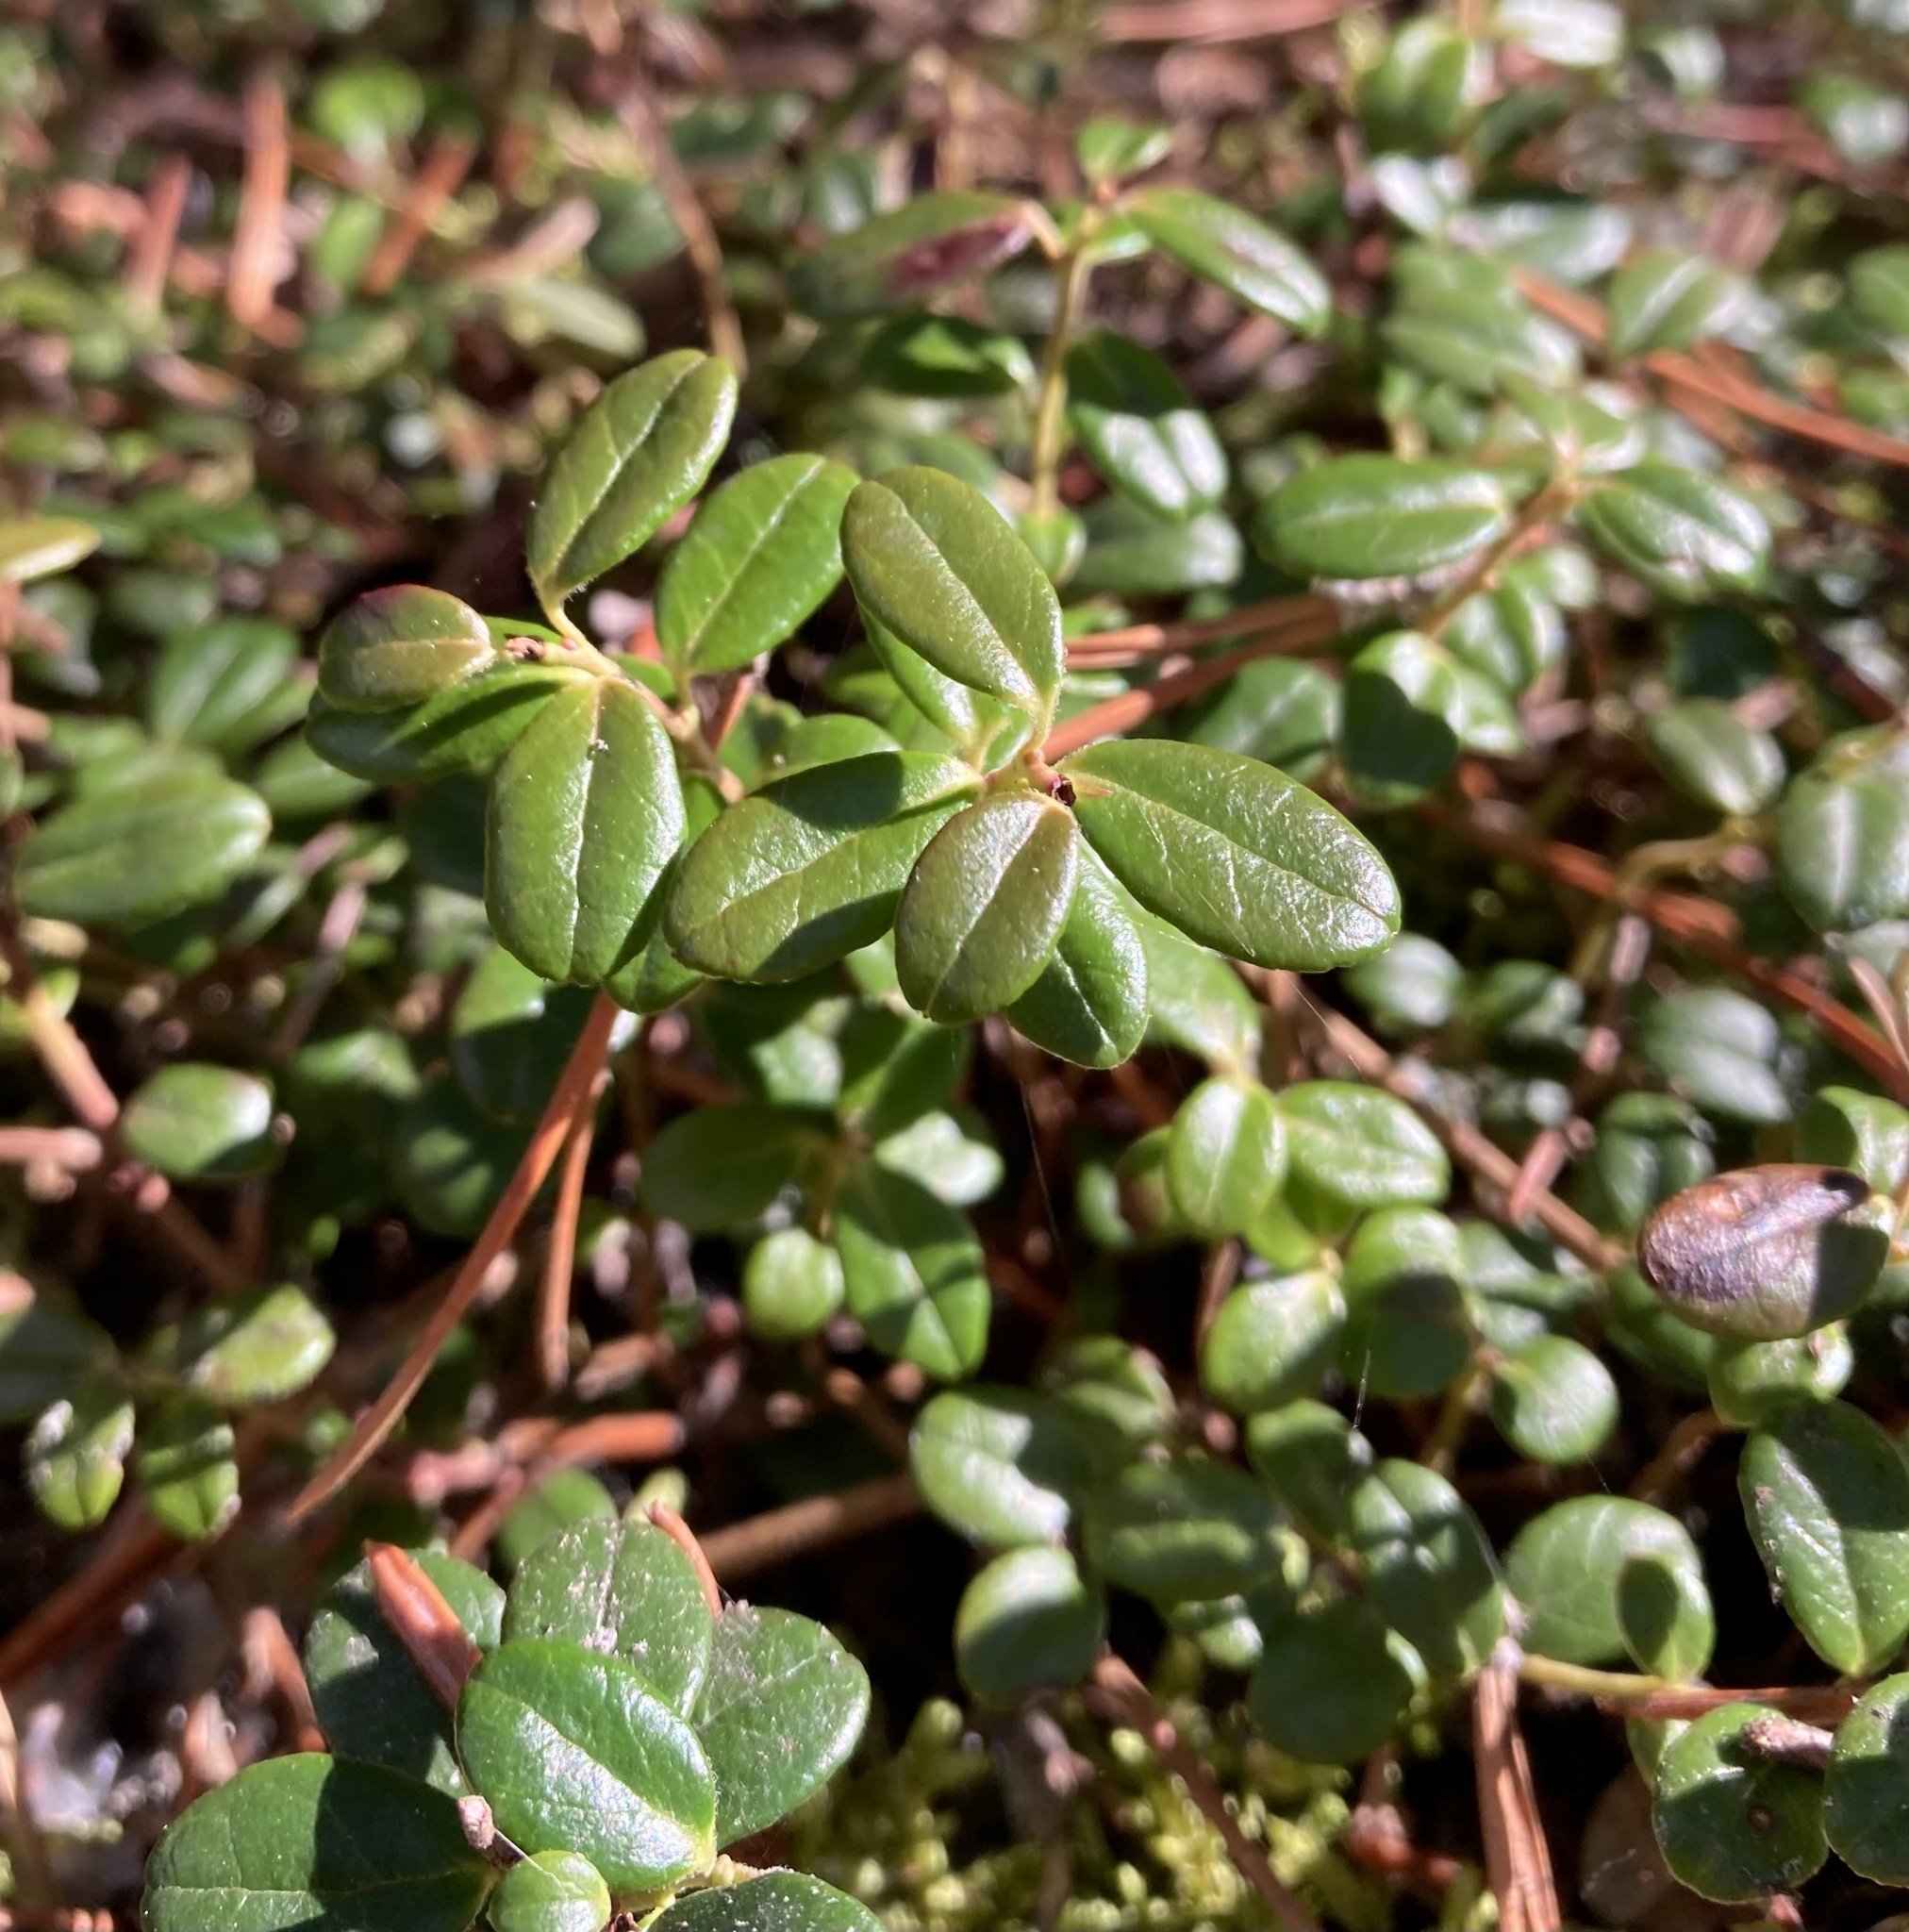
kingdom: Plantae
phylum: Tracheophyta
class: Magnoliopsida
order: Ericales
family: Ericaceae
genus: Vaccinium
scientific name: Vaccinium vitis-idaea
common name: Cowberry
